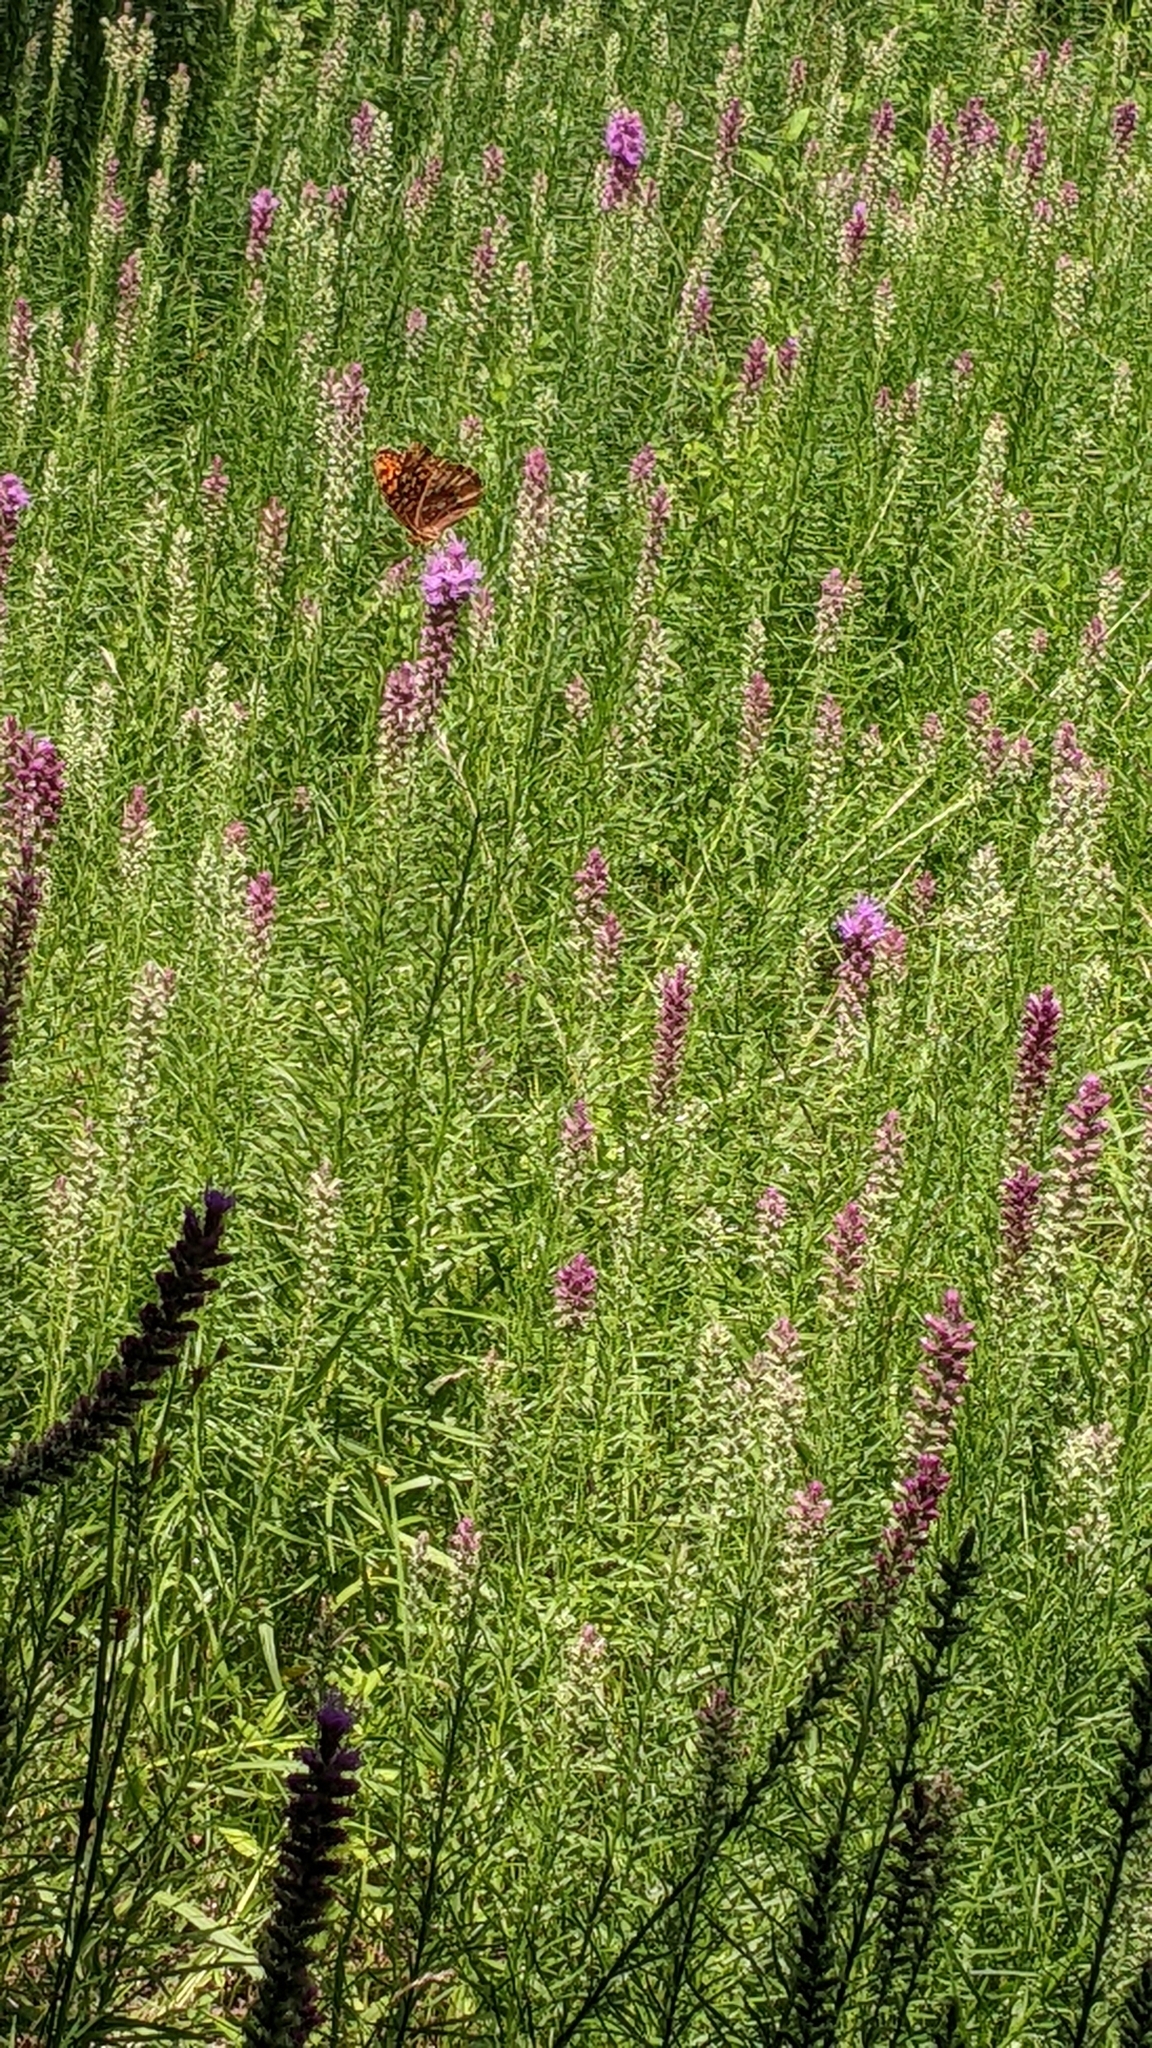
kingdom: Animalia
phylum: Arthropoda
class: Insecta
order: Lepidoptera
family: Nymphalidae
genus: Speyeria
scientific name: Speyeria cybele
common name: Great spangled fritillary
